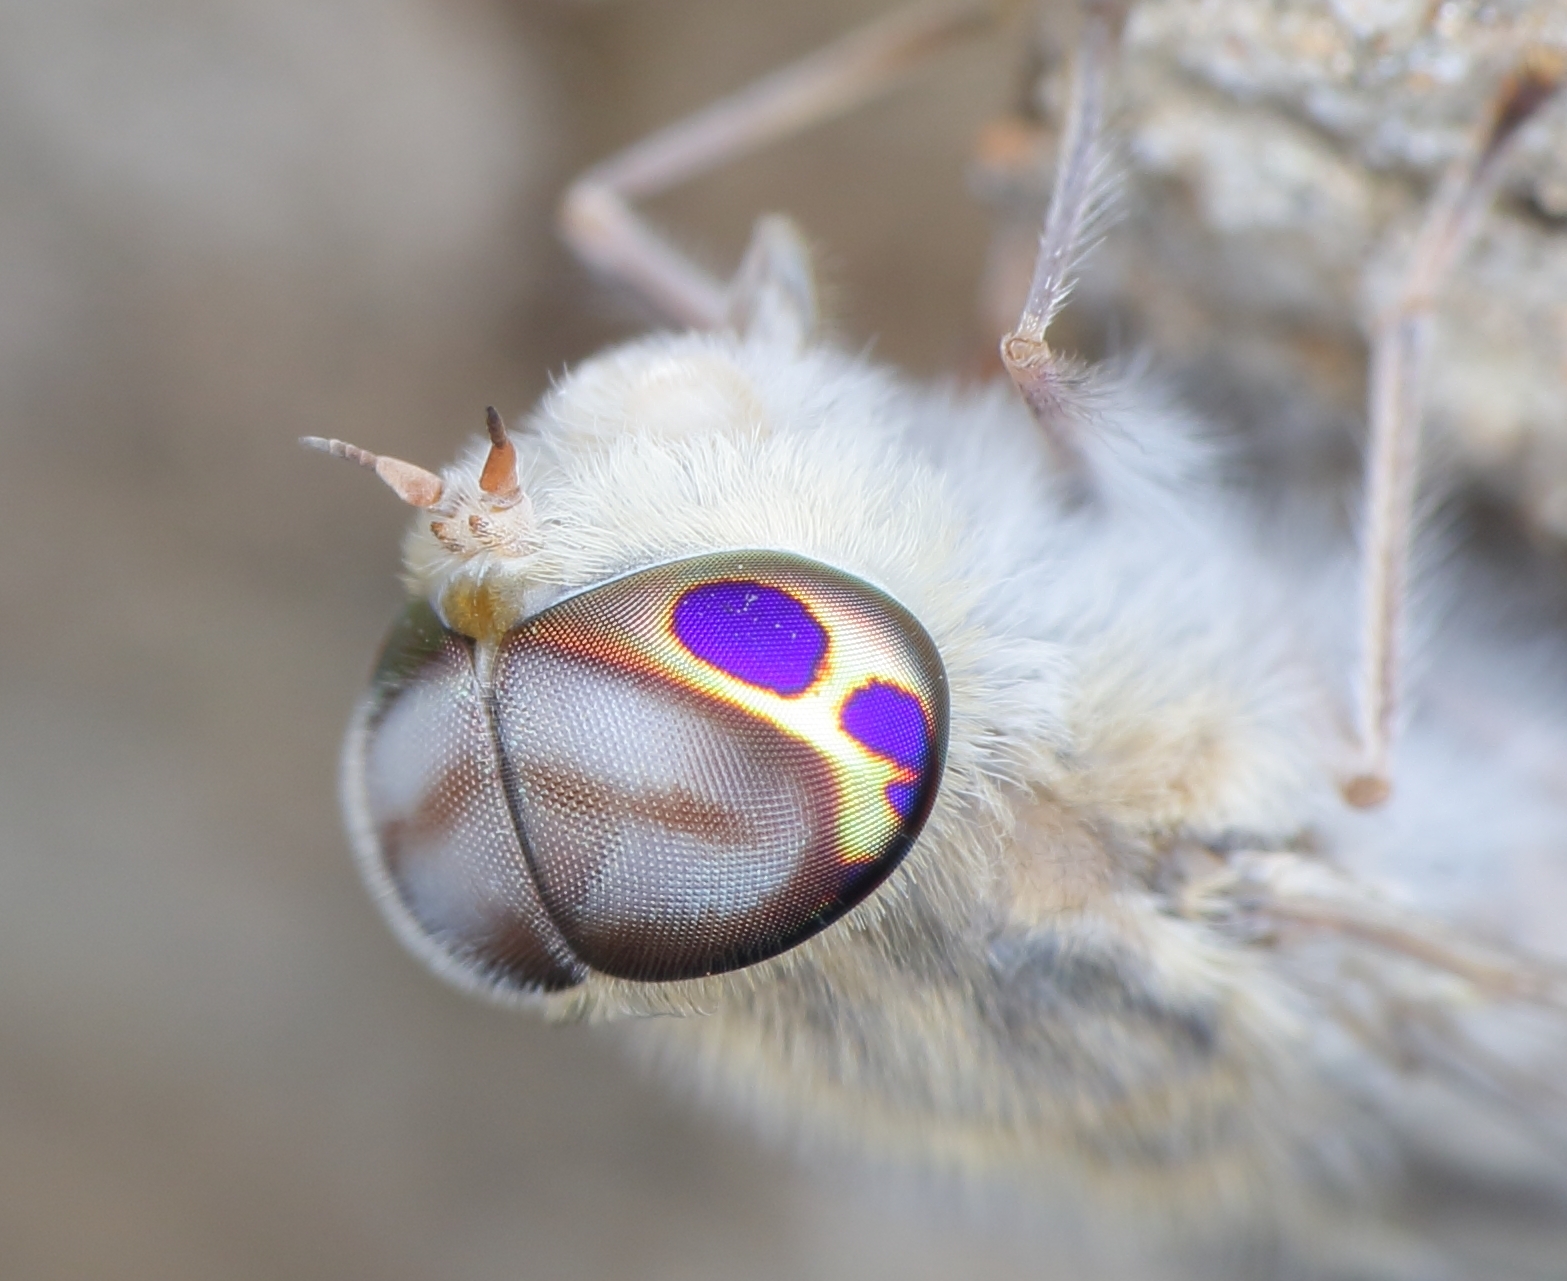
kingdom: Animalia
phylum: Arthropoda
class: Insecta
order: Diptera
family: Tabanidae
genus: Tabanus
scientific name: Tabanus pertinens
